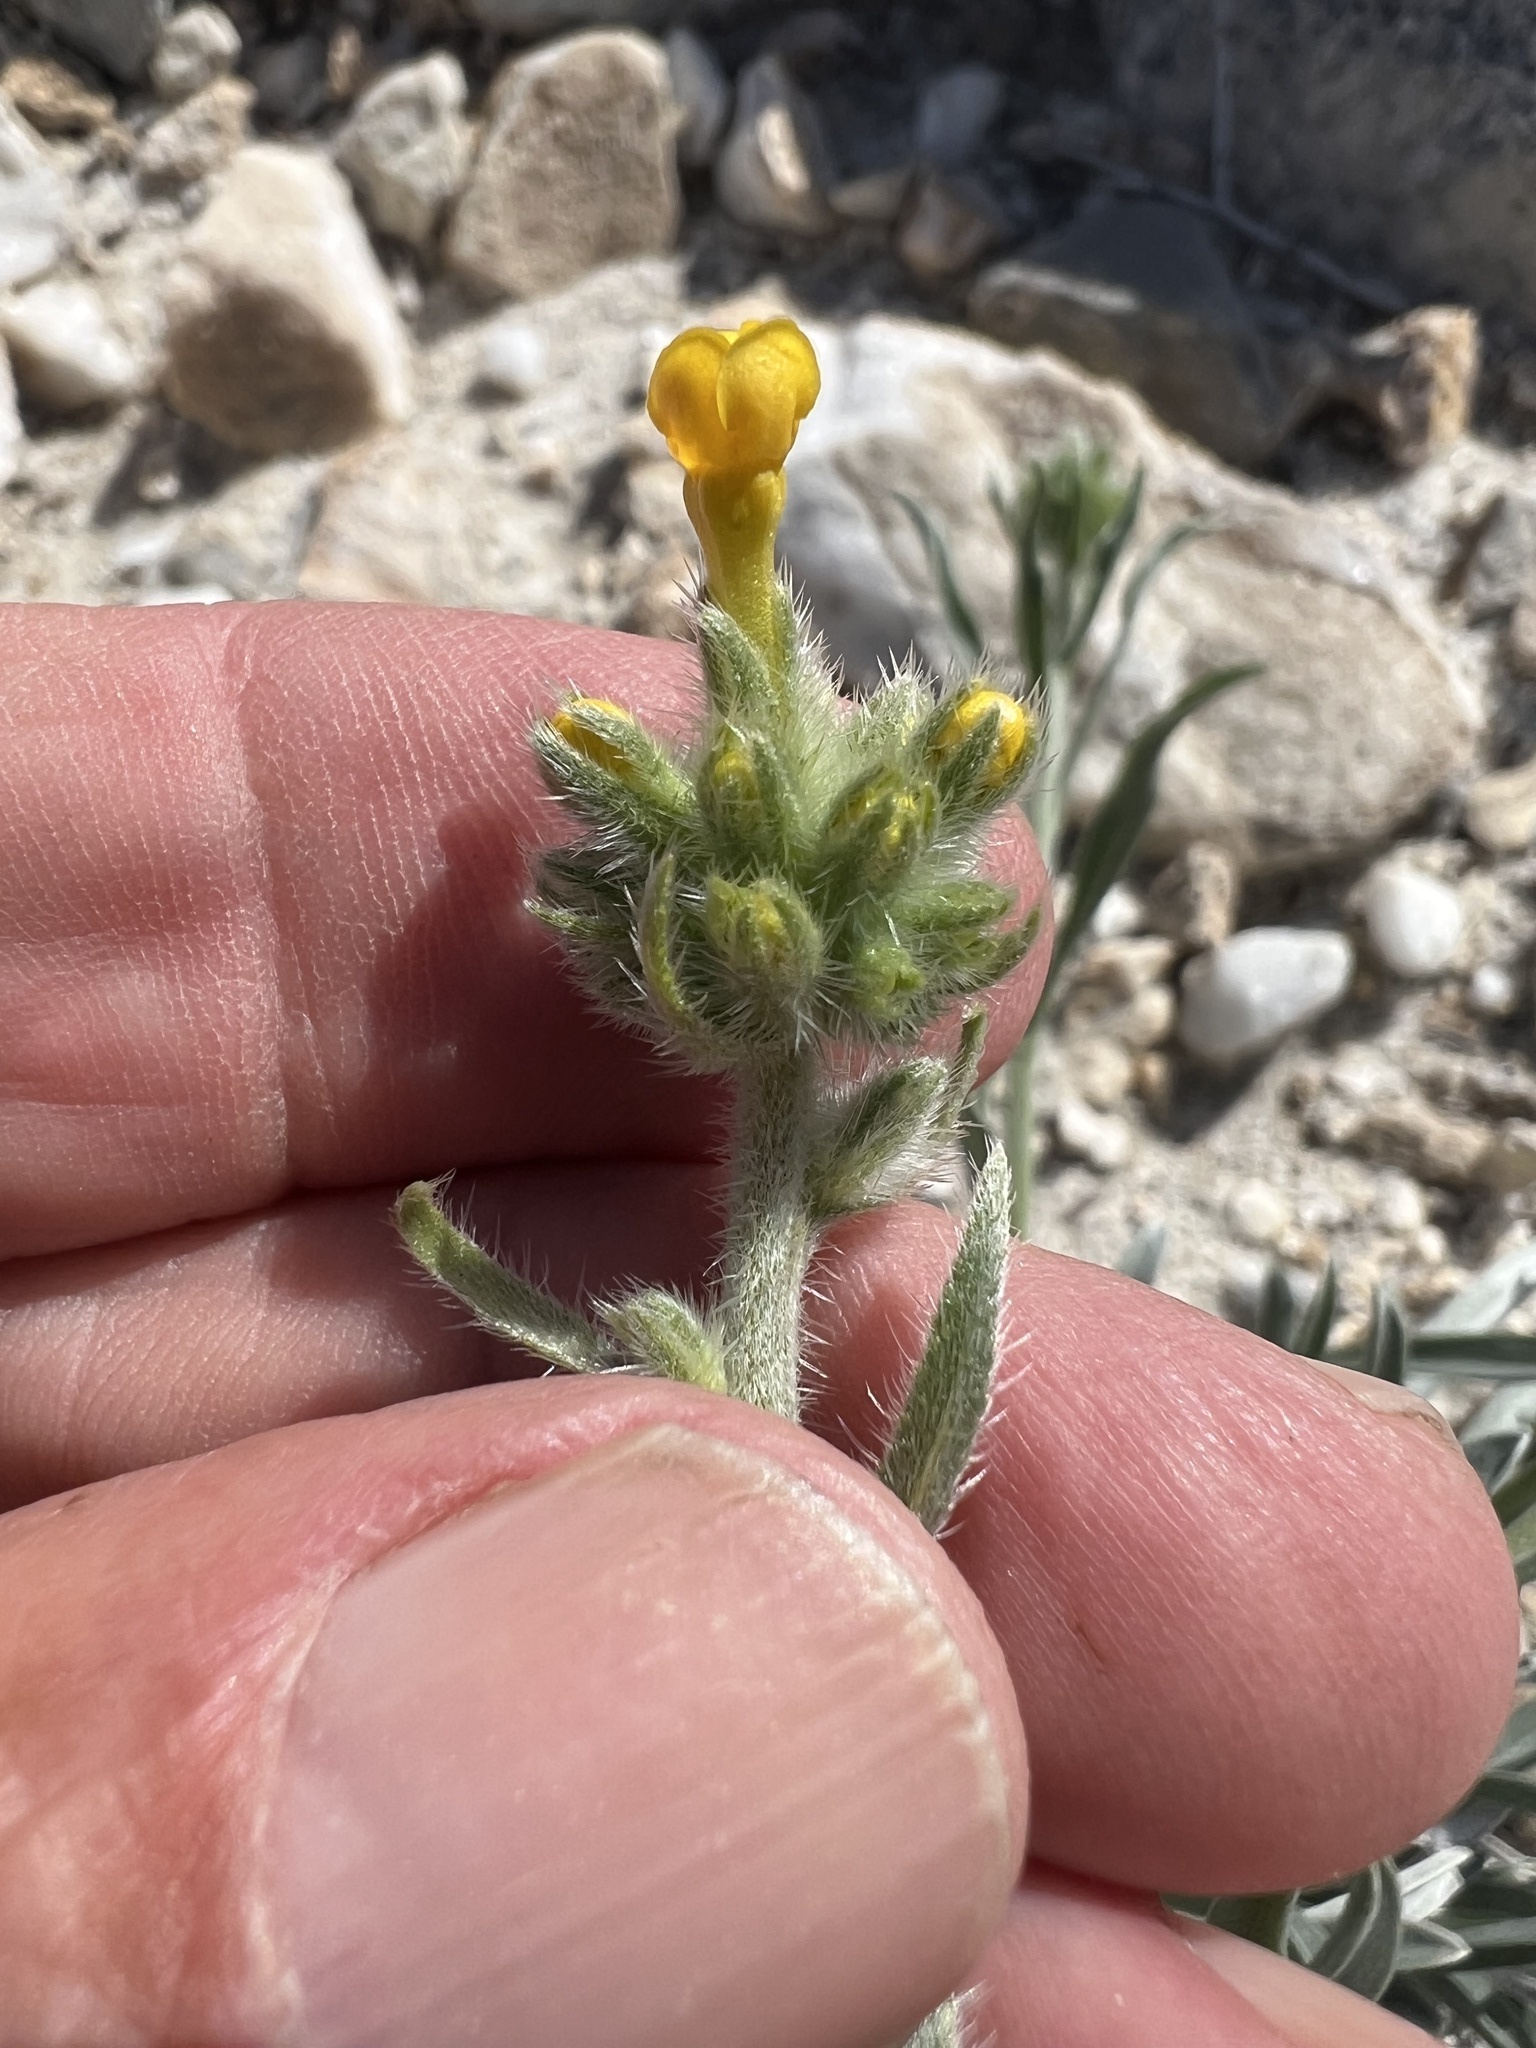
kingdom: Plantae
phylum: Tracheophyta
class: Magnoliopsida
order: Boraginales
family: Boraginaceae
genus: Oreocarya
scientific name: Oreocarya confertiflora
